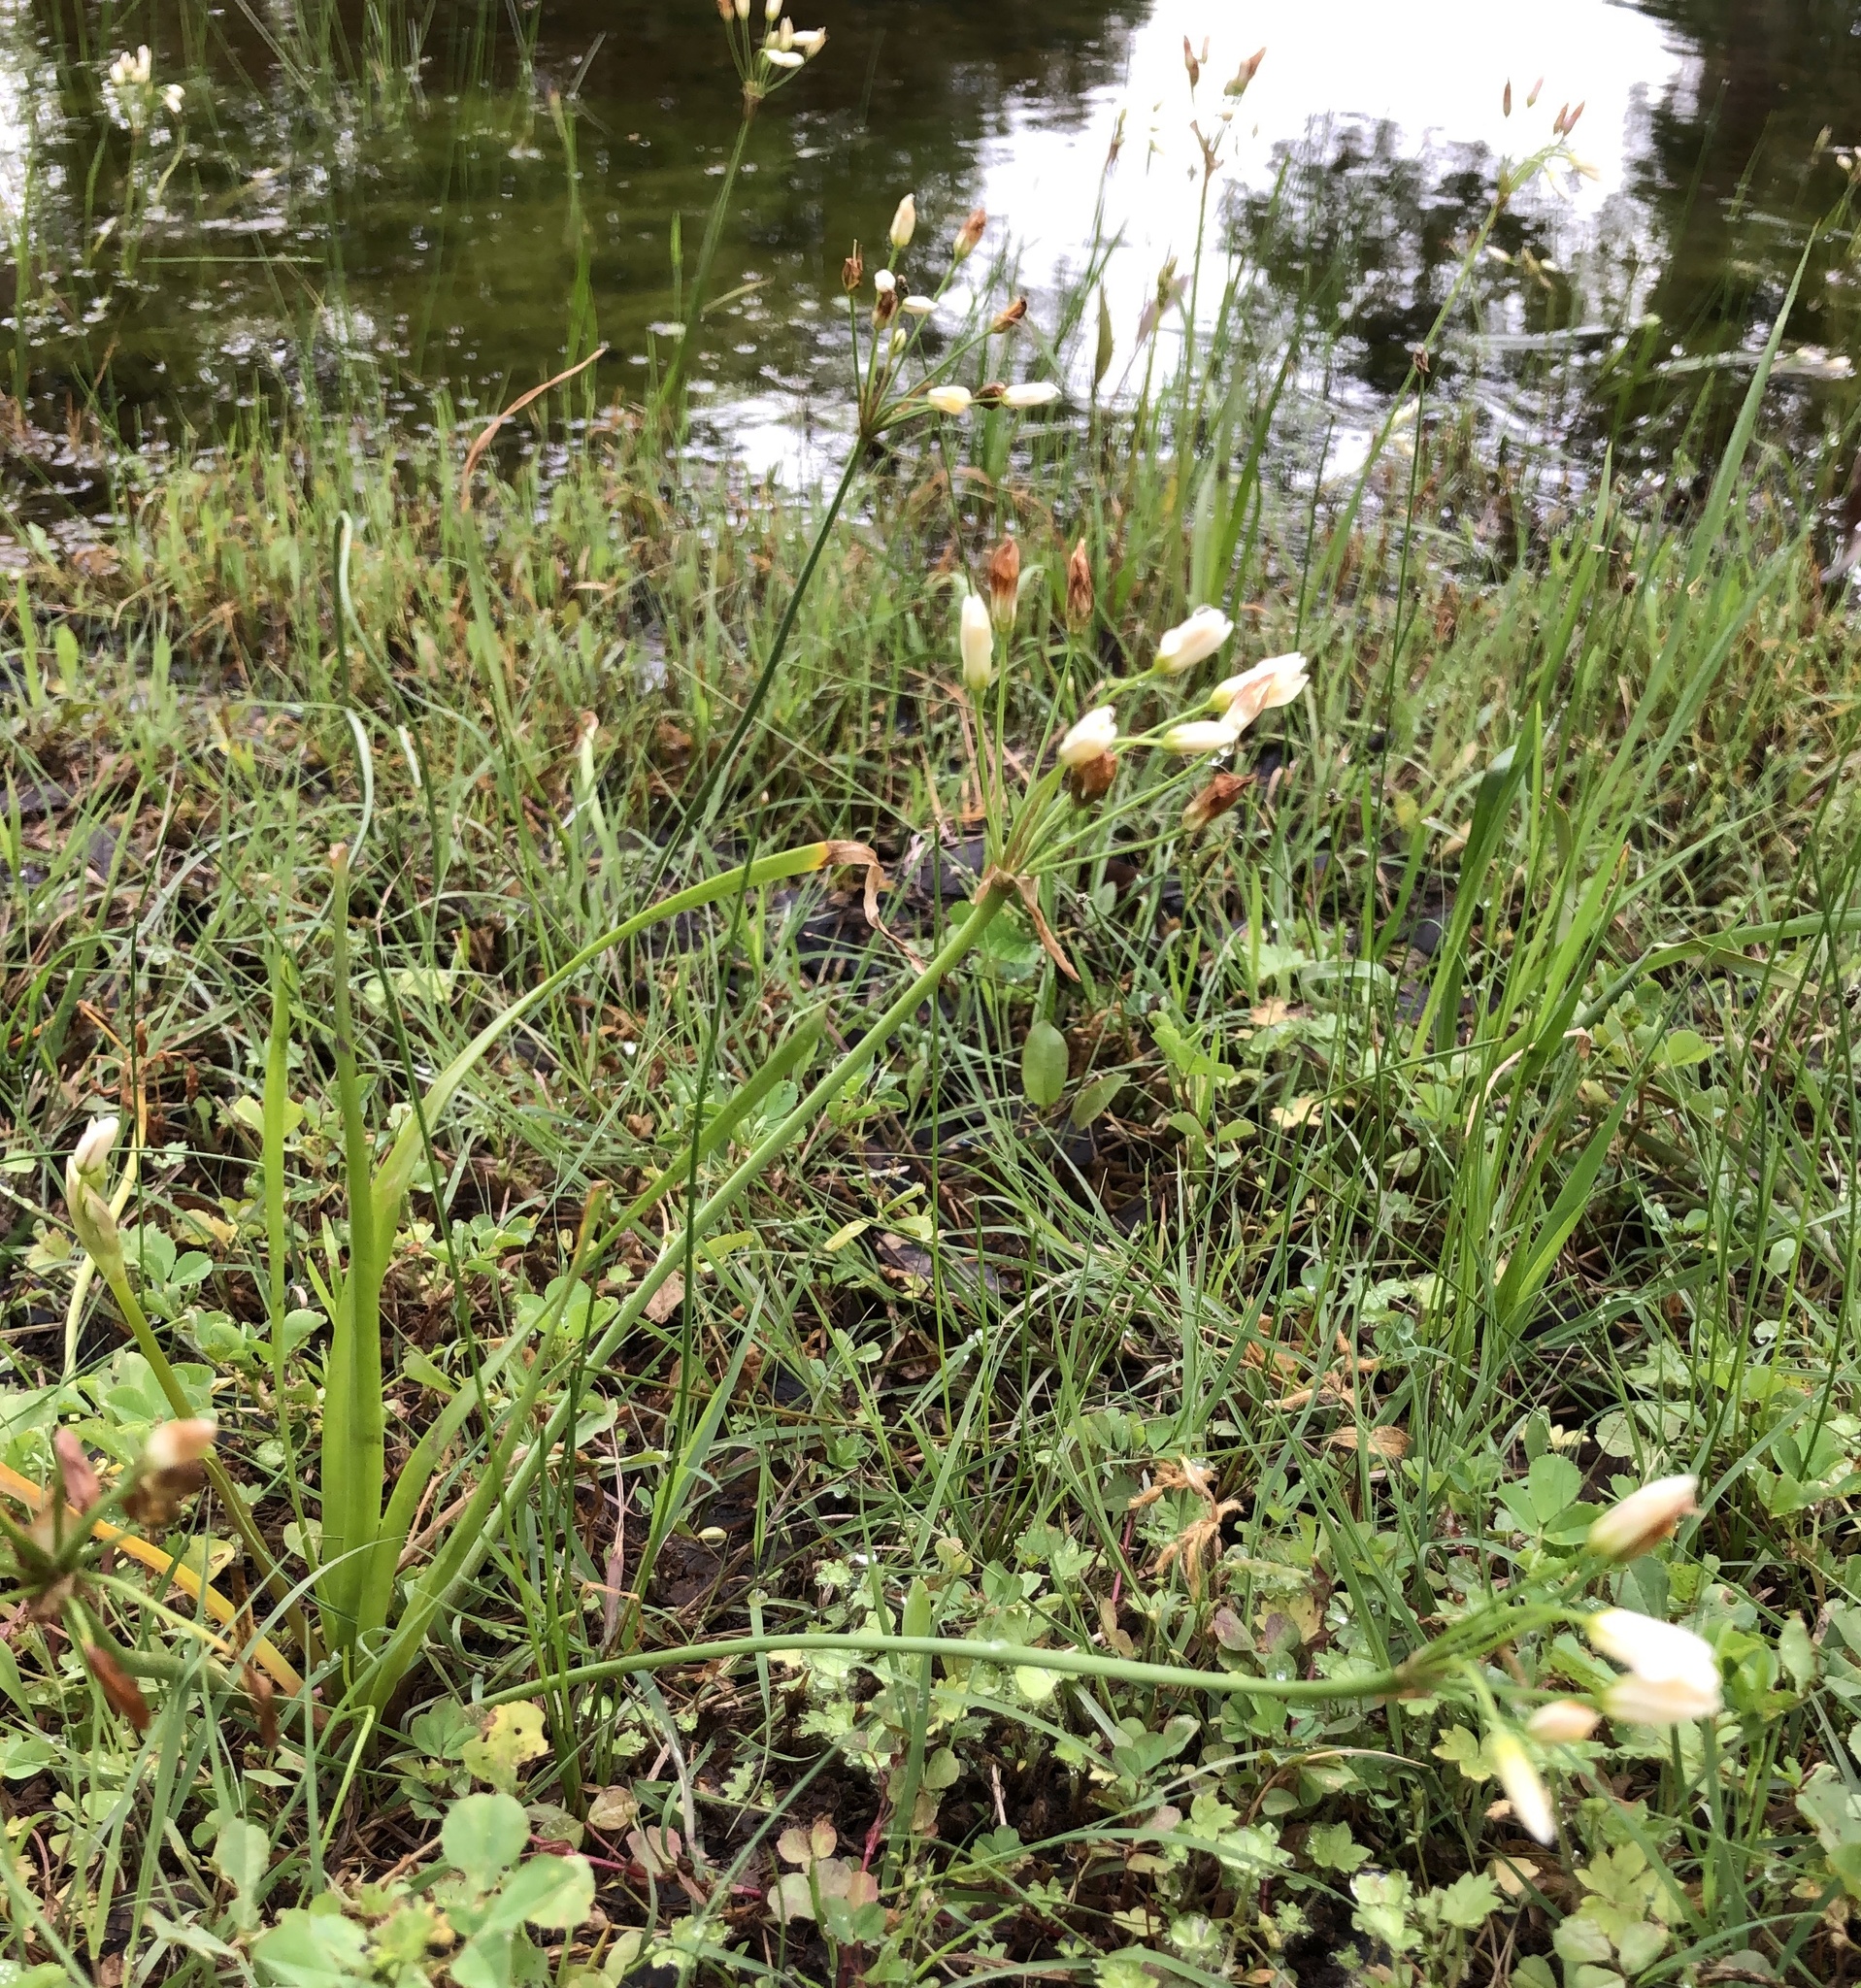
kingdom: Plantae
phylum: Tracheophyta
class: Liliopsida
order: Asparagales
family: Amaryllidaceae
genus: Nothoscordum
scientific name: Nothoscordum bivalve
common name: Crow-poison
